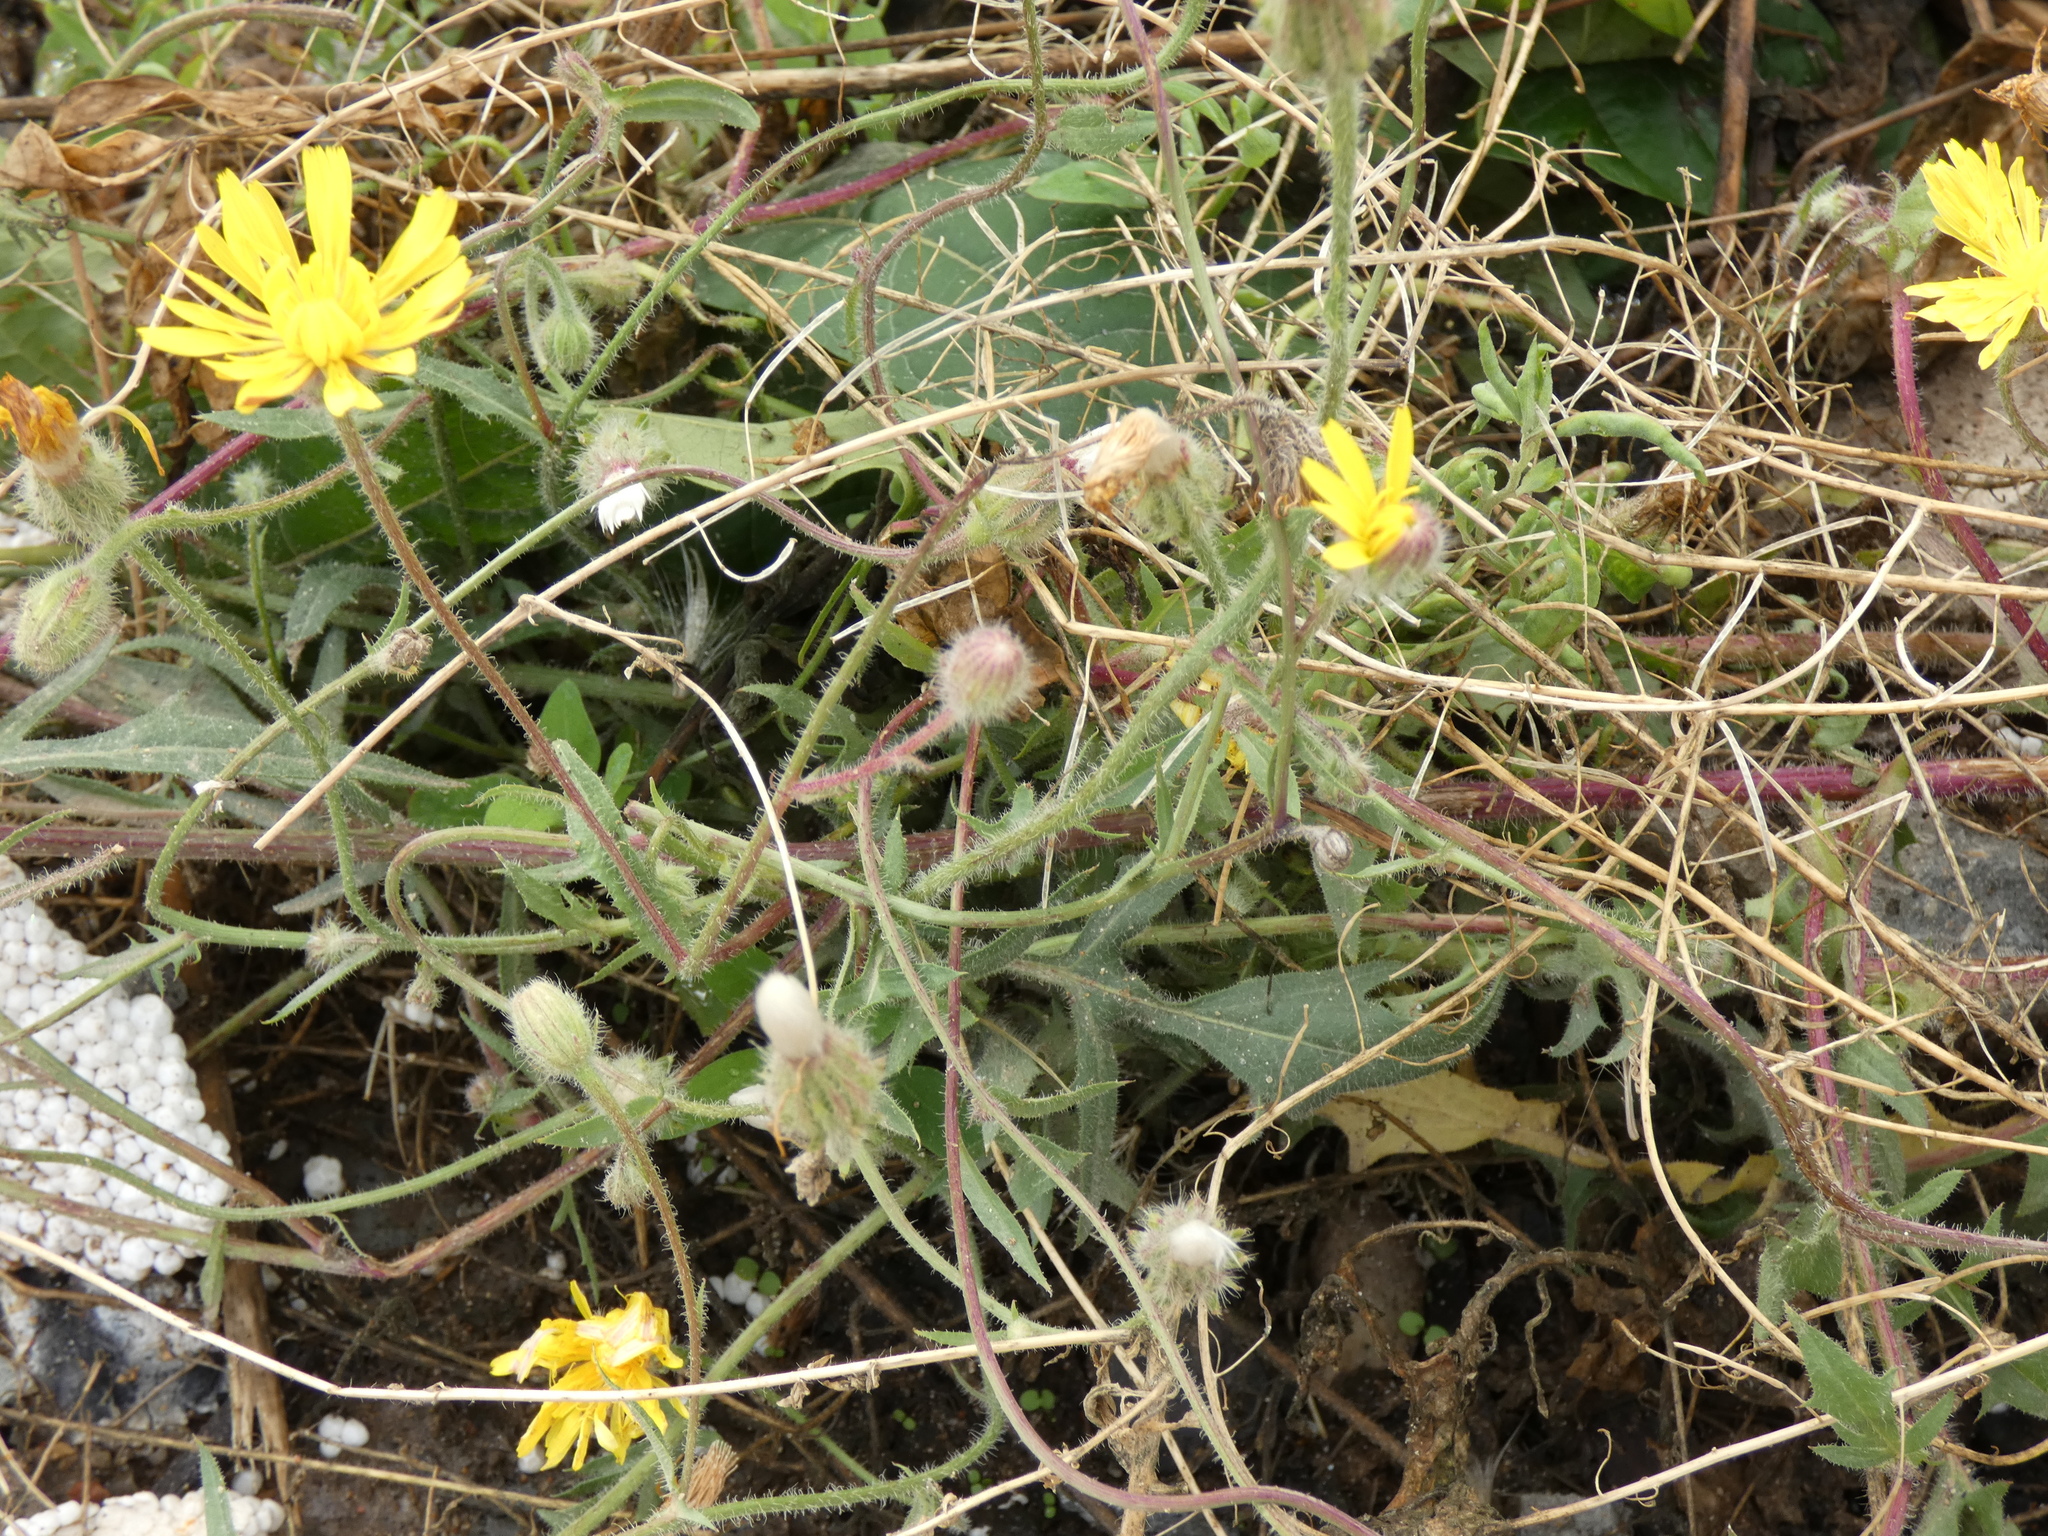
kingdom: Plantae
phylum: Tracheophyta
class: Magnoliopsida
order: Asterales
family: Asteraceae
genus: Crepis
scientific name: Crepis foetida
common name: Stinking hawk's-beard
